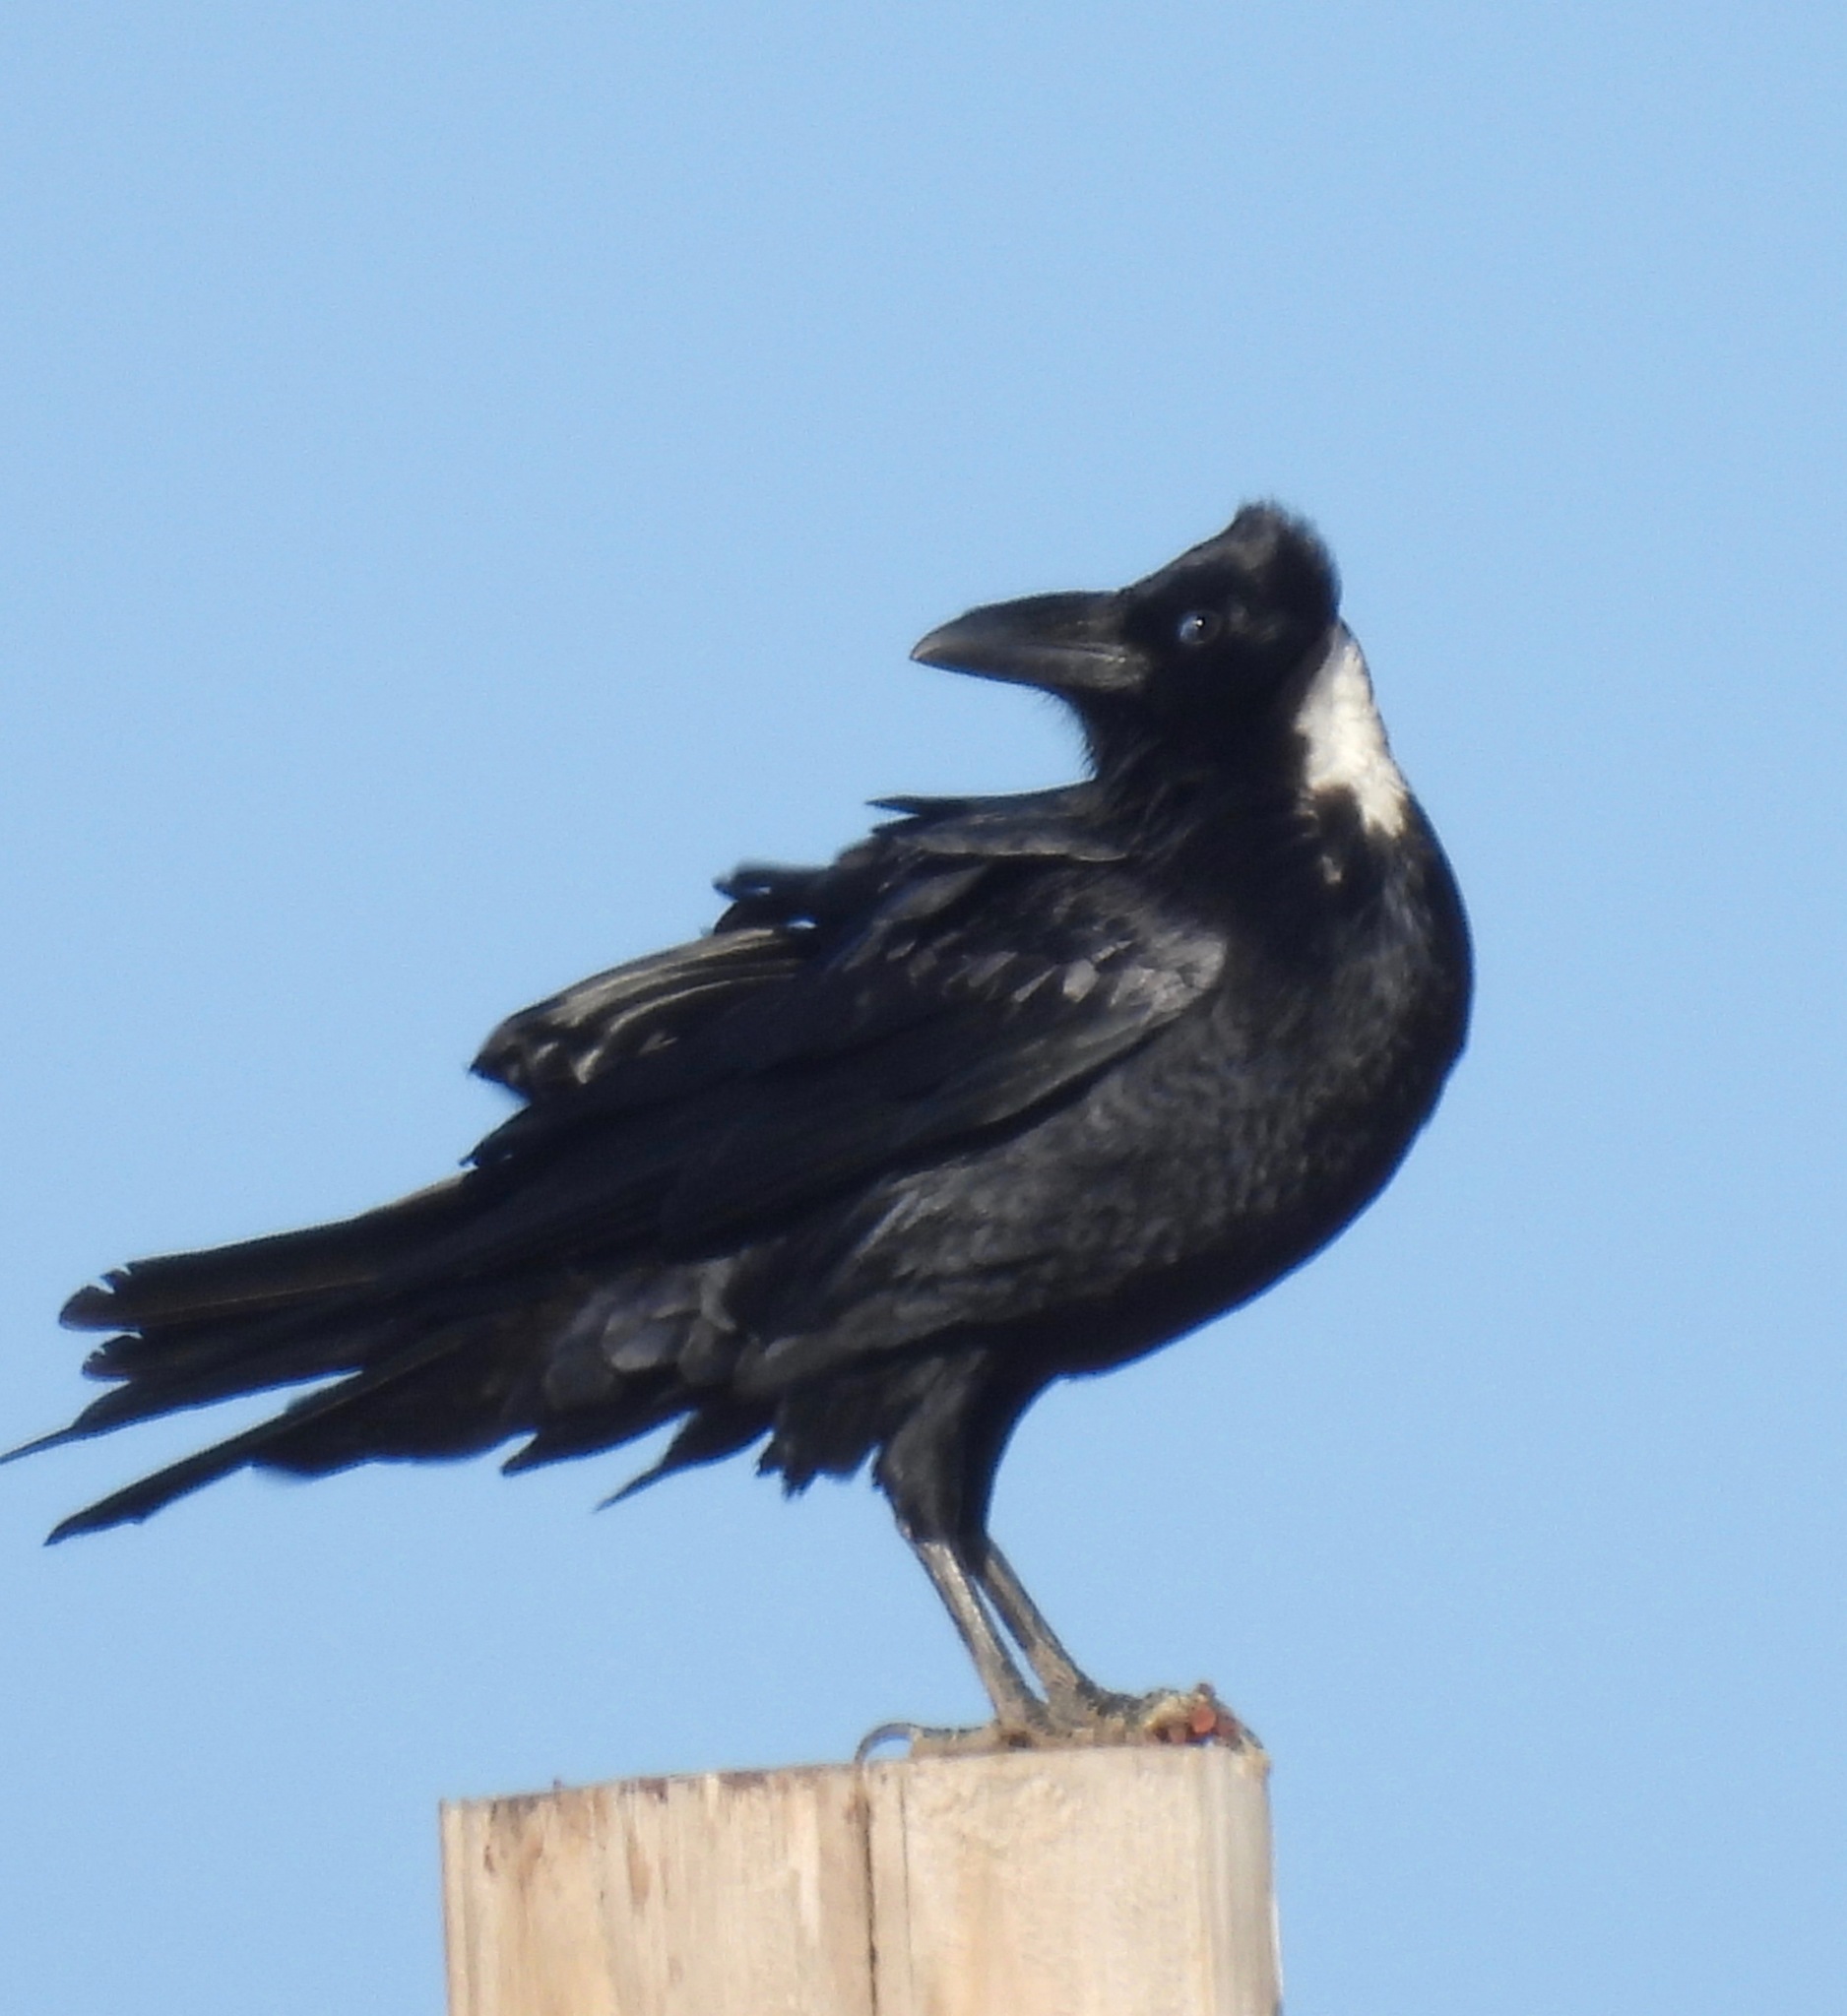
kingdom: Animalia
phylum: Chordata
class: Aves
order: Passeriformes
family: Corvidae
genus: Corvus
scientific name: Corvus cryptoleucus
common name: Chihuahuan raven
